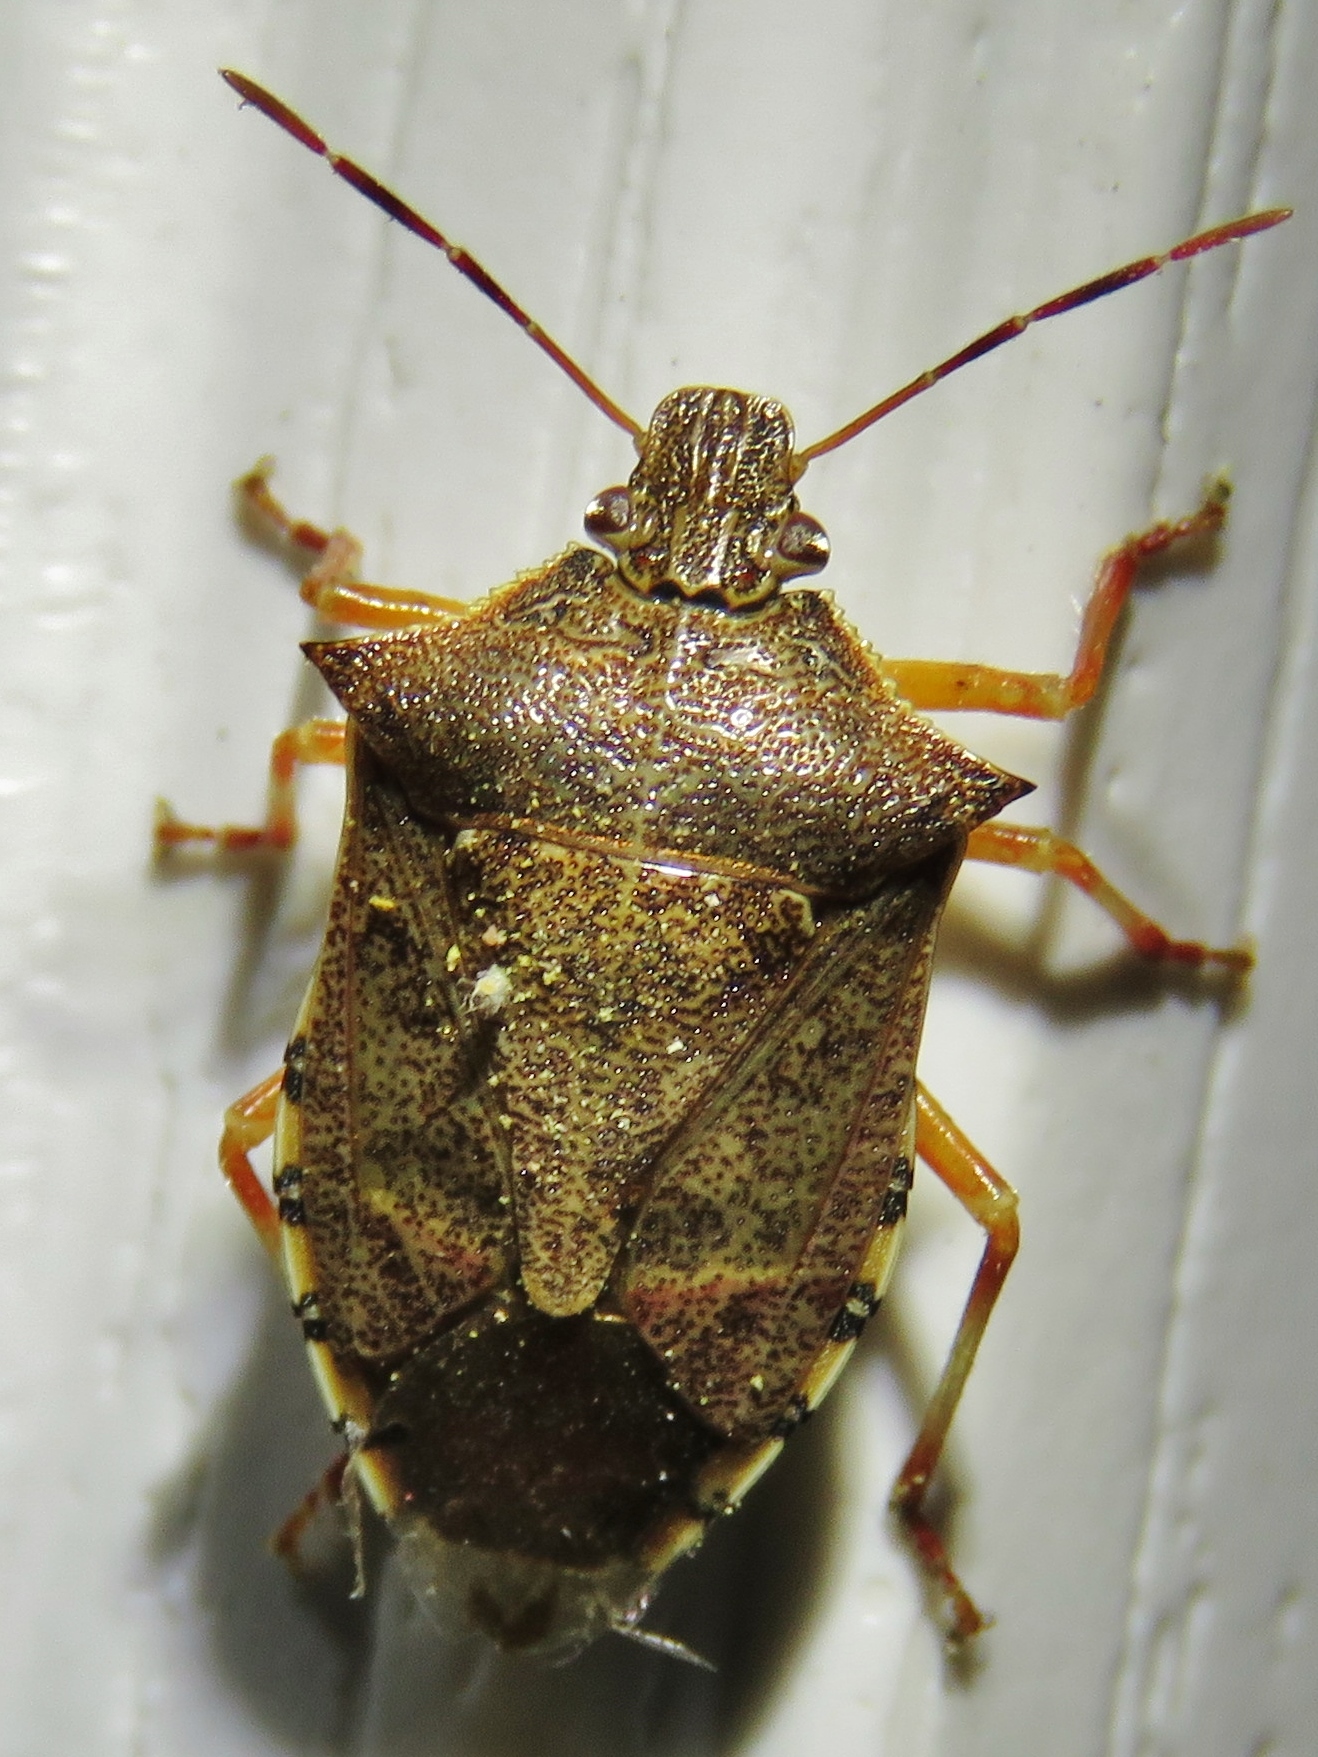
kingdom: Animalia
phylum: Arthropoda
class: Insecta
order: Hemiptera
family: Pentatomidae
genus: Podisus
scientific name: Podisus maculiventris
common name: Spined soldier bug
